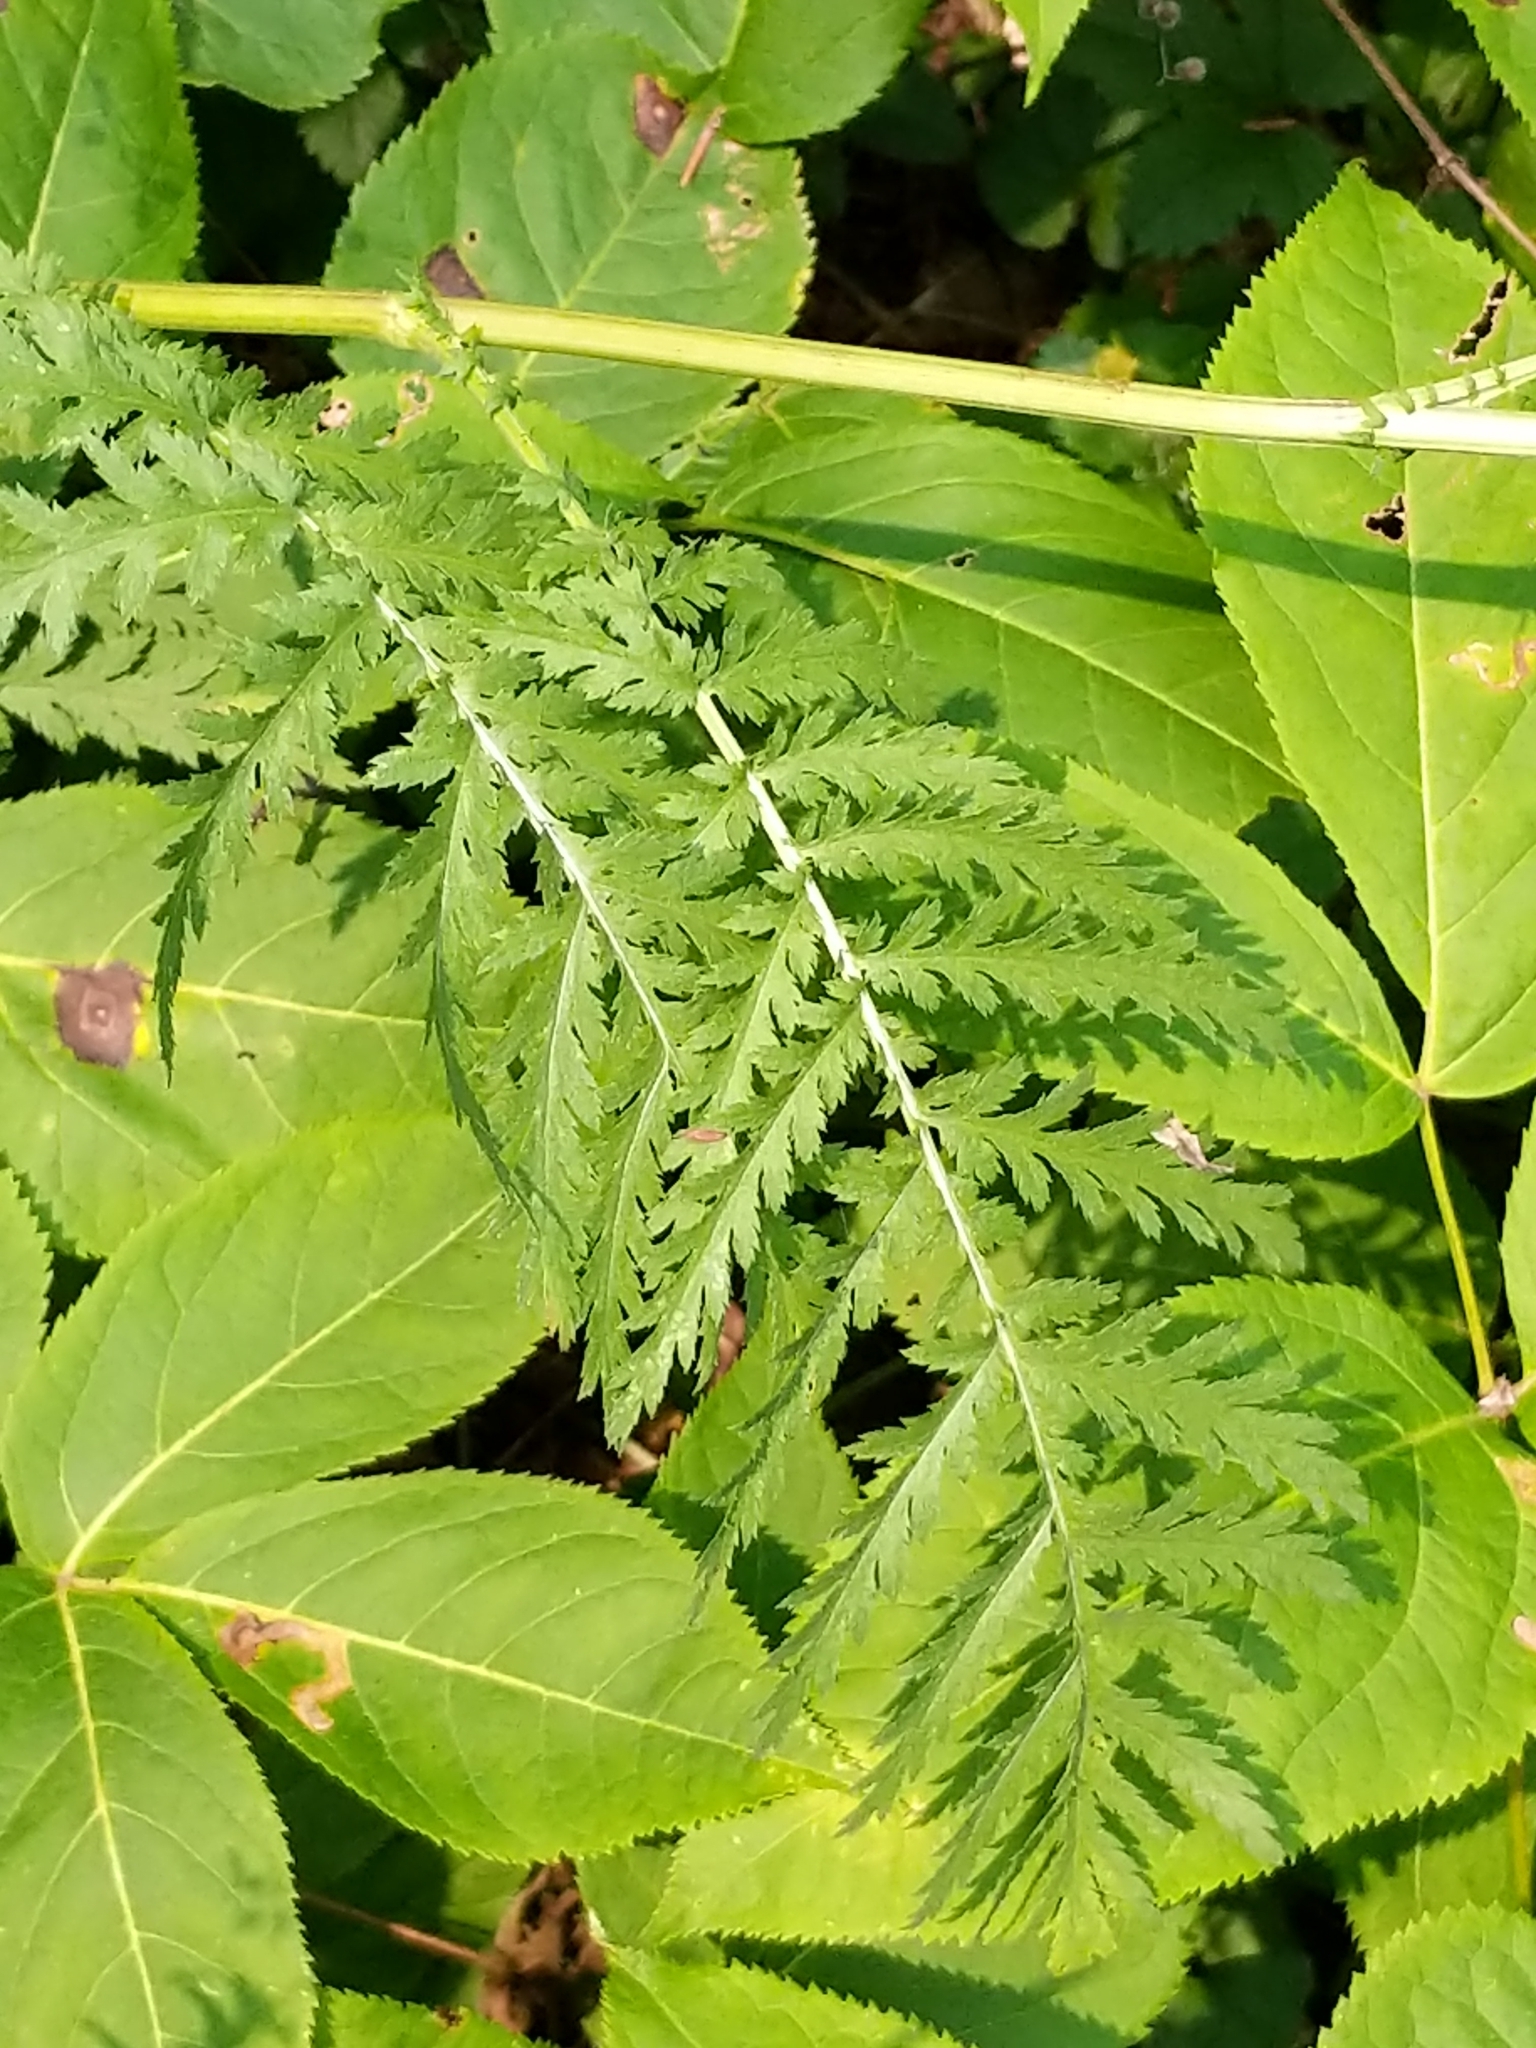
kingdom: Plantae
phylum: Tracheophyta
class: Magnoliopsida
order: Asterales
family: Asteraceae
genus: Tanacetum
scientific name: Tanacetum vulgare
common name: Common tansy
